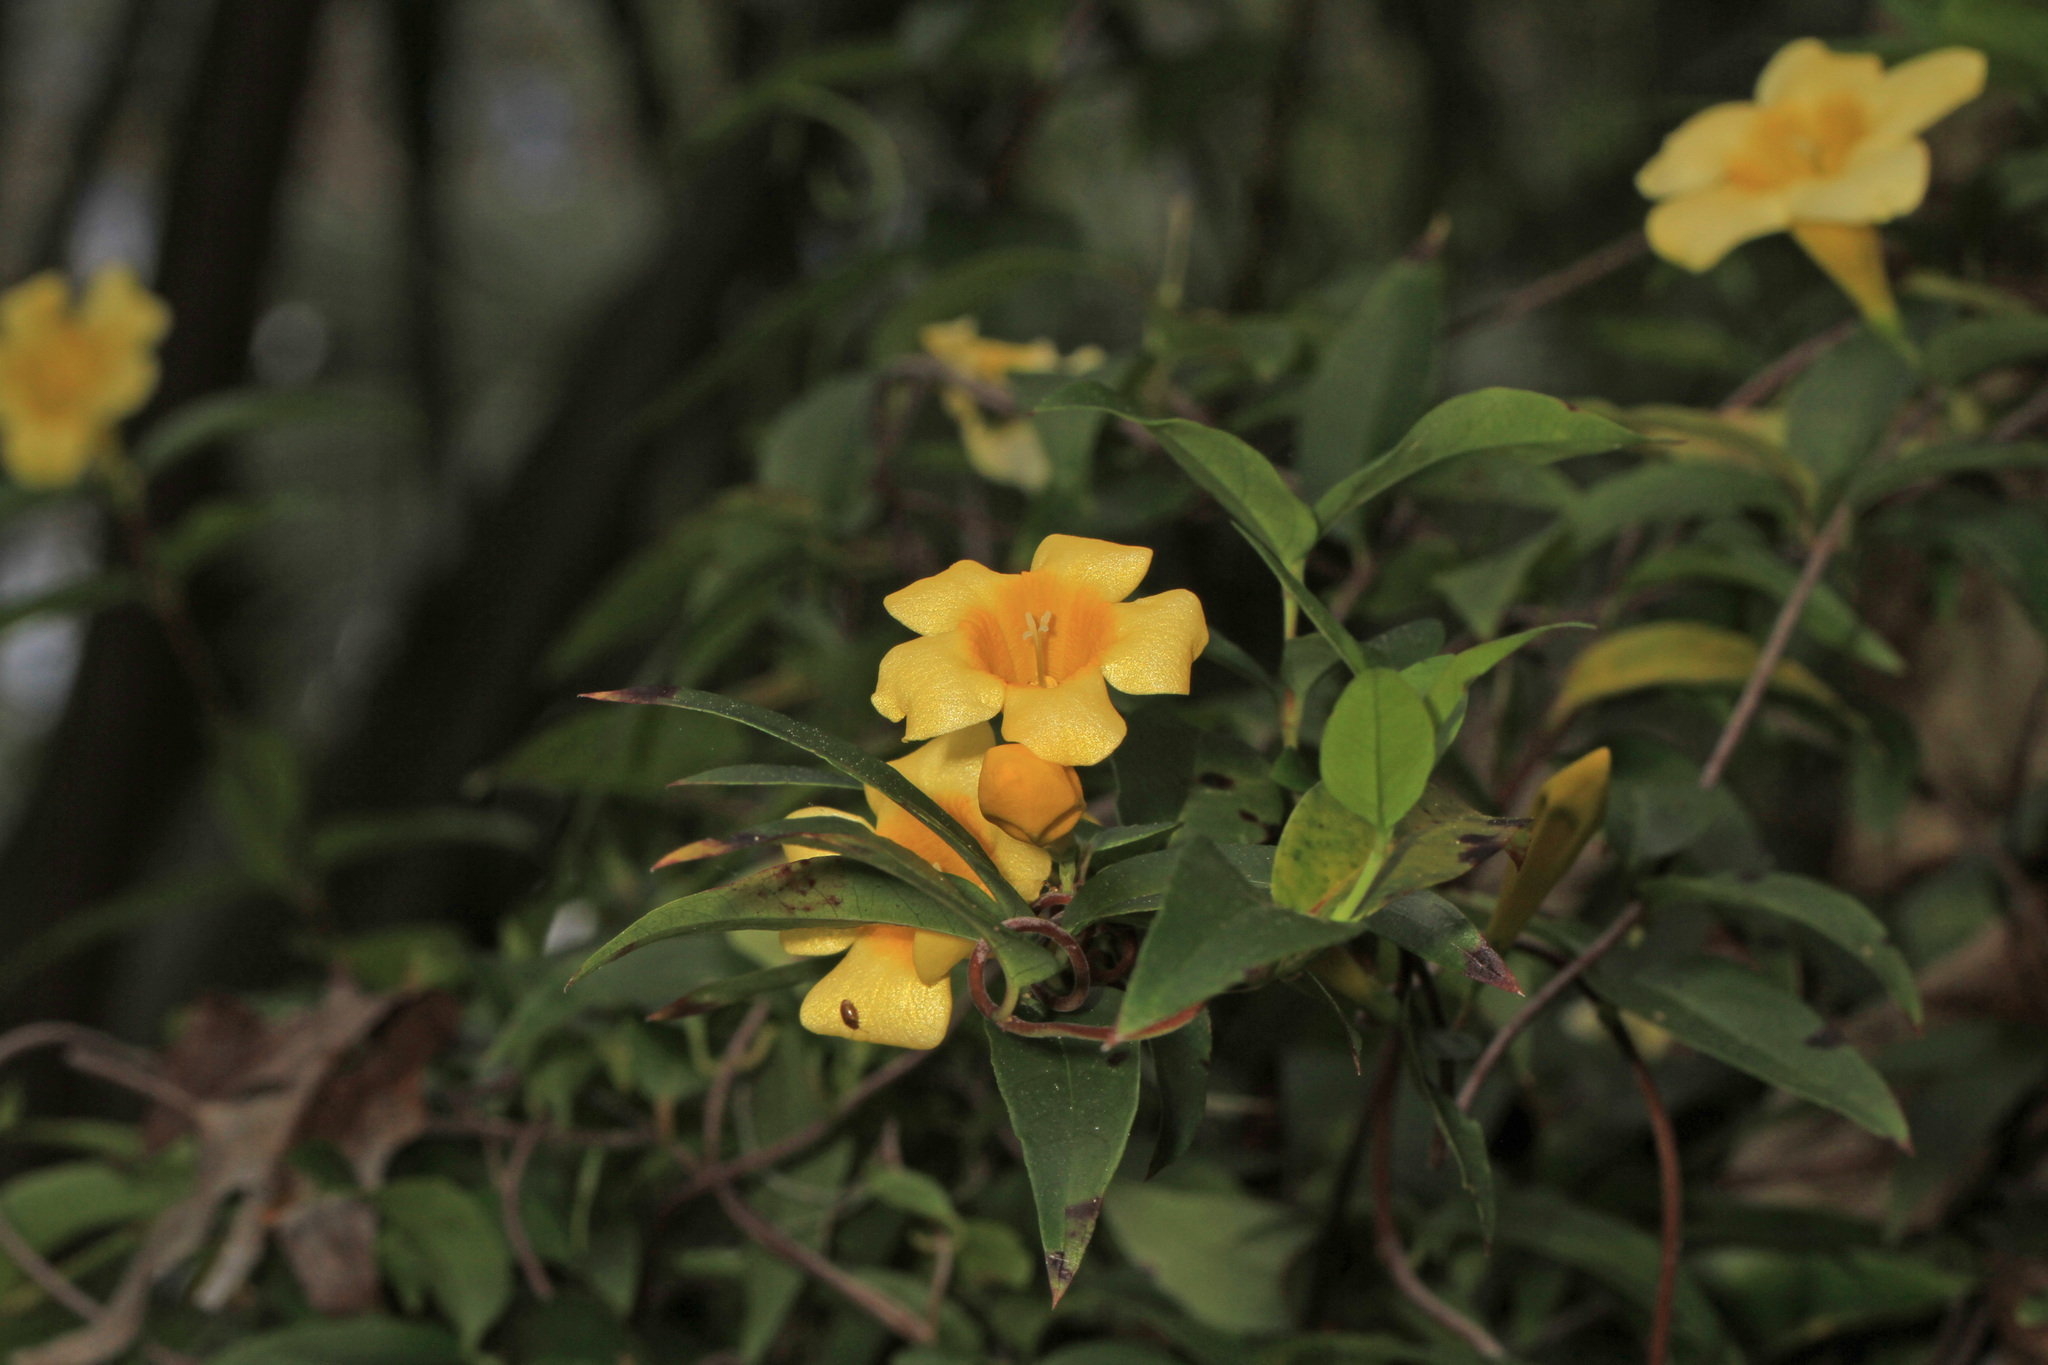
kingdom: Plantae
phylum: Tracheophyta
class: Magnoliopsida
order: Gentianales
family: Gelsemiaceae
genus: Gelsemium
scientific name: Gelsemium sempervirens
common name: Carolina-jasmine
